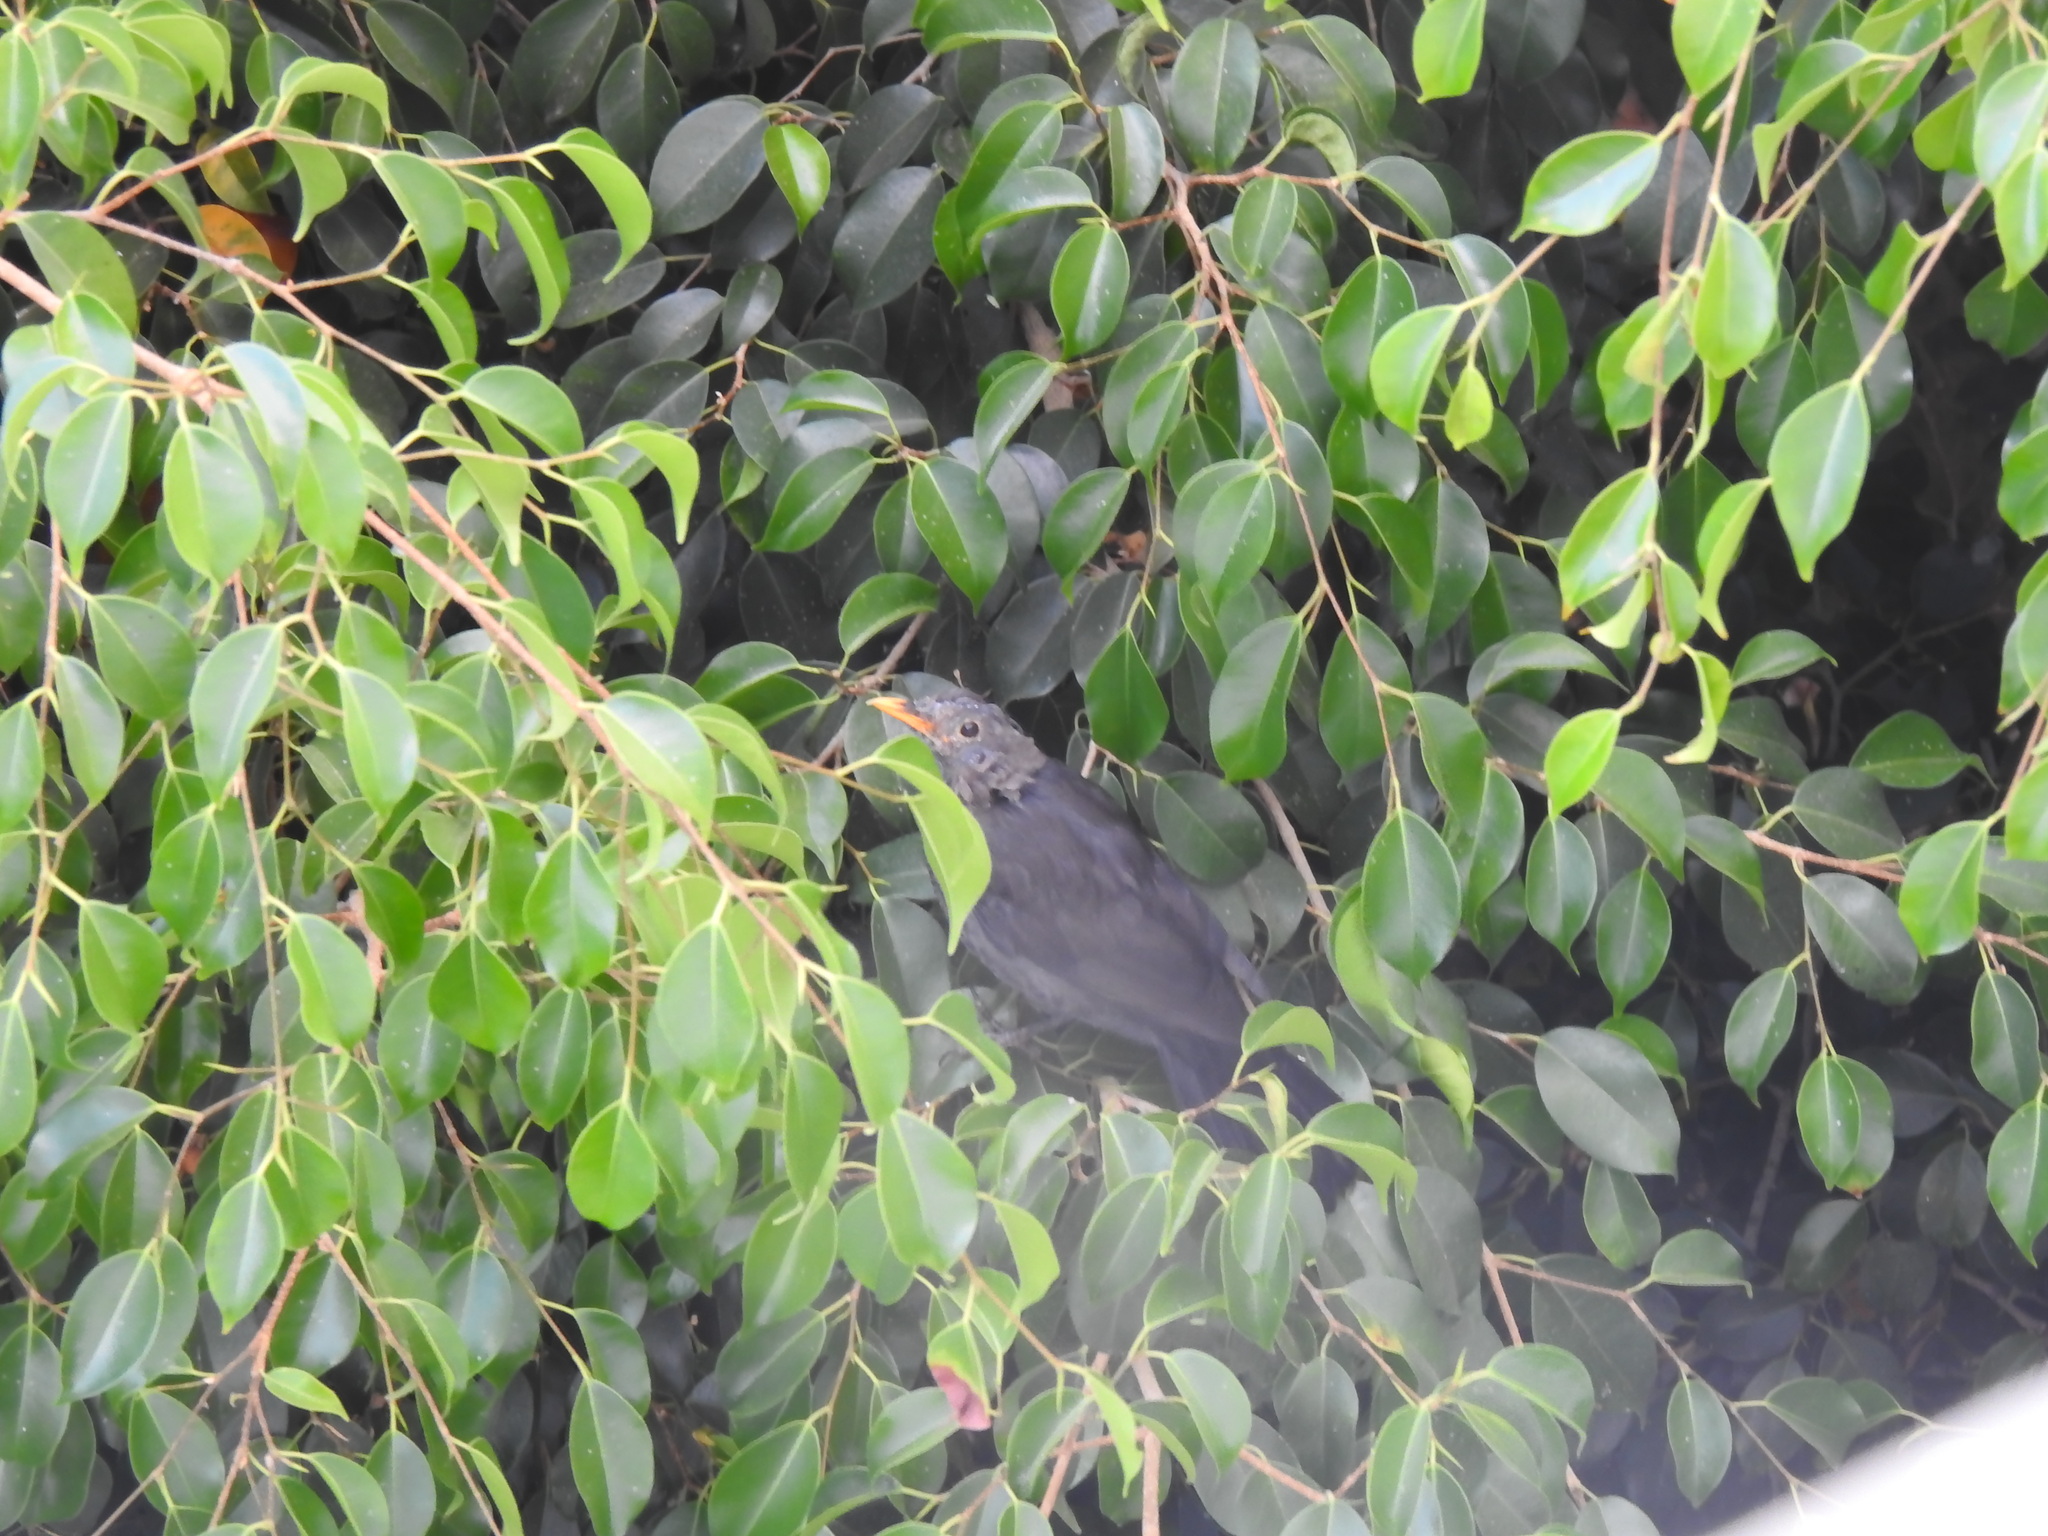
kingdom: Animalia
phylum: Chordata
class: Aves
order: Passeriformes
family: Turdidae
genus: Turdus
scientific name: Turdus merula
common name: Common blackbird
